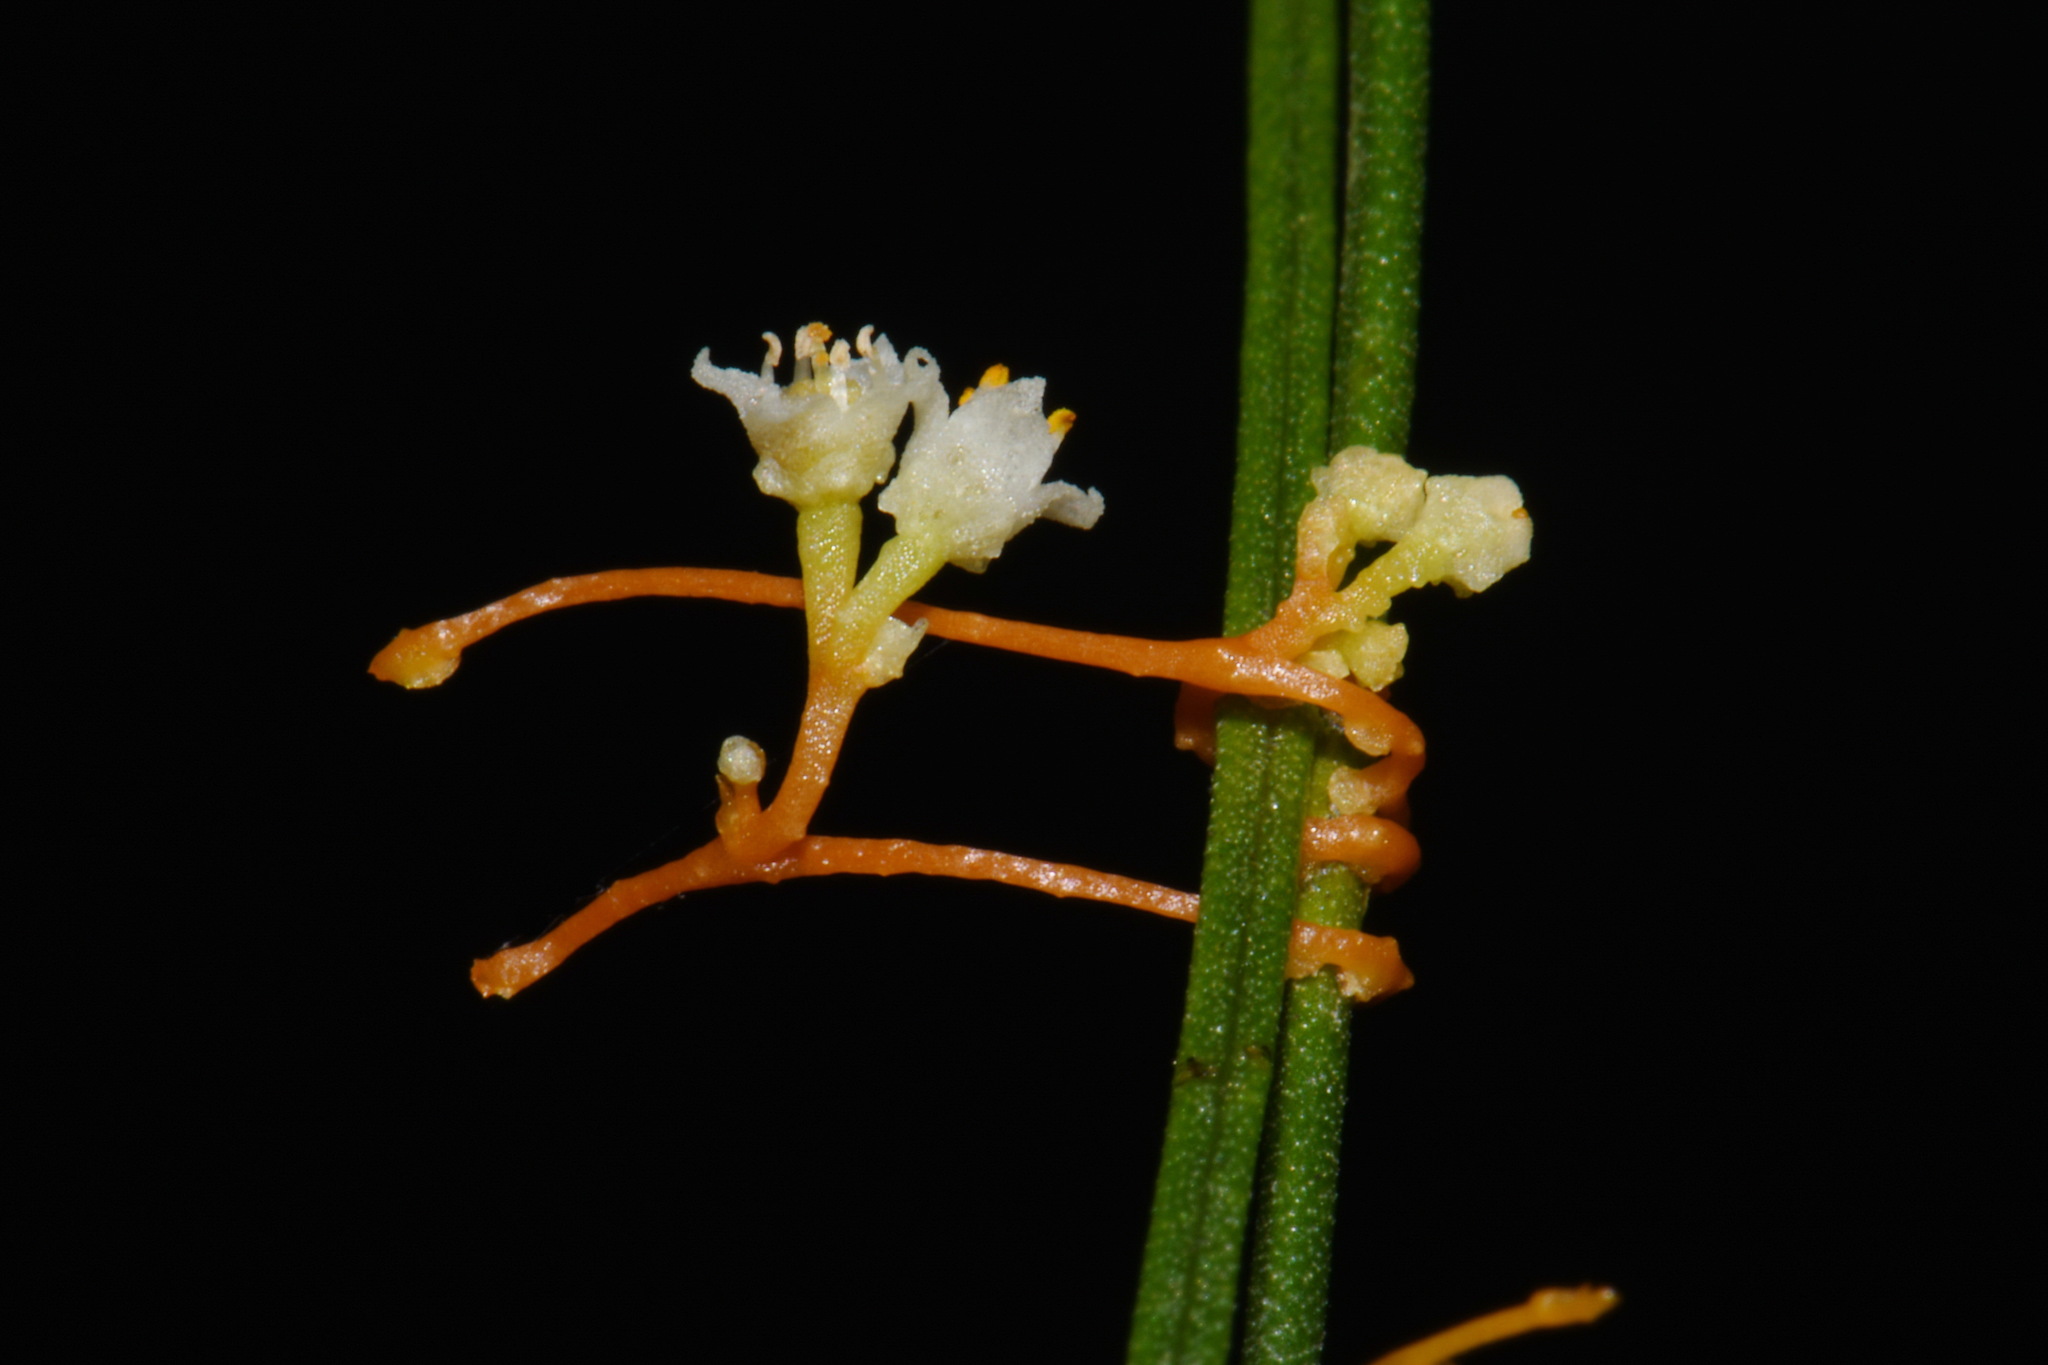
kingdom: Plantae
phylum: Tracheophyta
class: Magnoliopsida
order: Solanales
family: Convolvulaceae
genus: Cuscuta
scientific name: Cuscuta harperi
